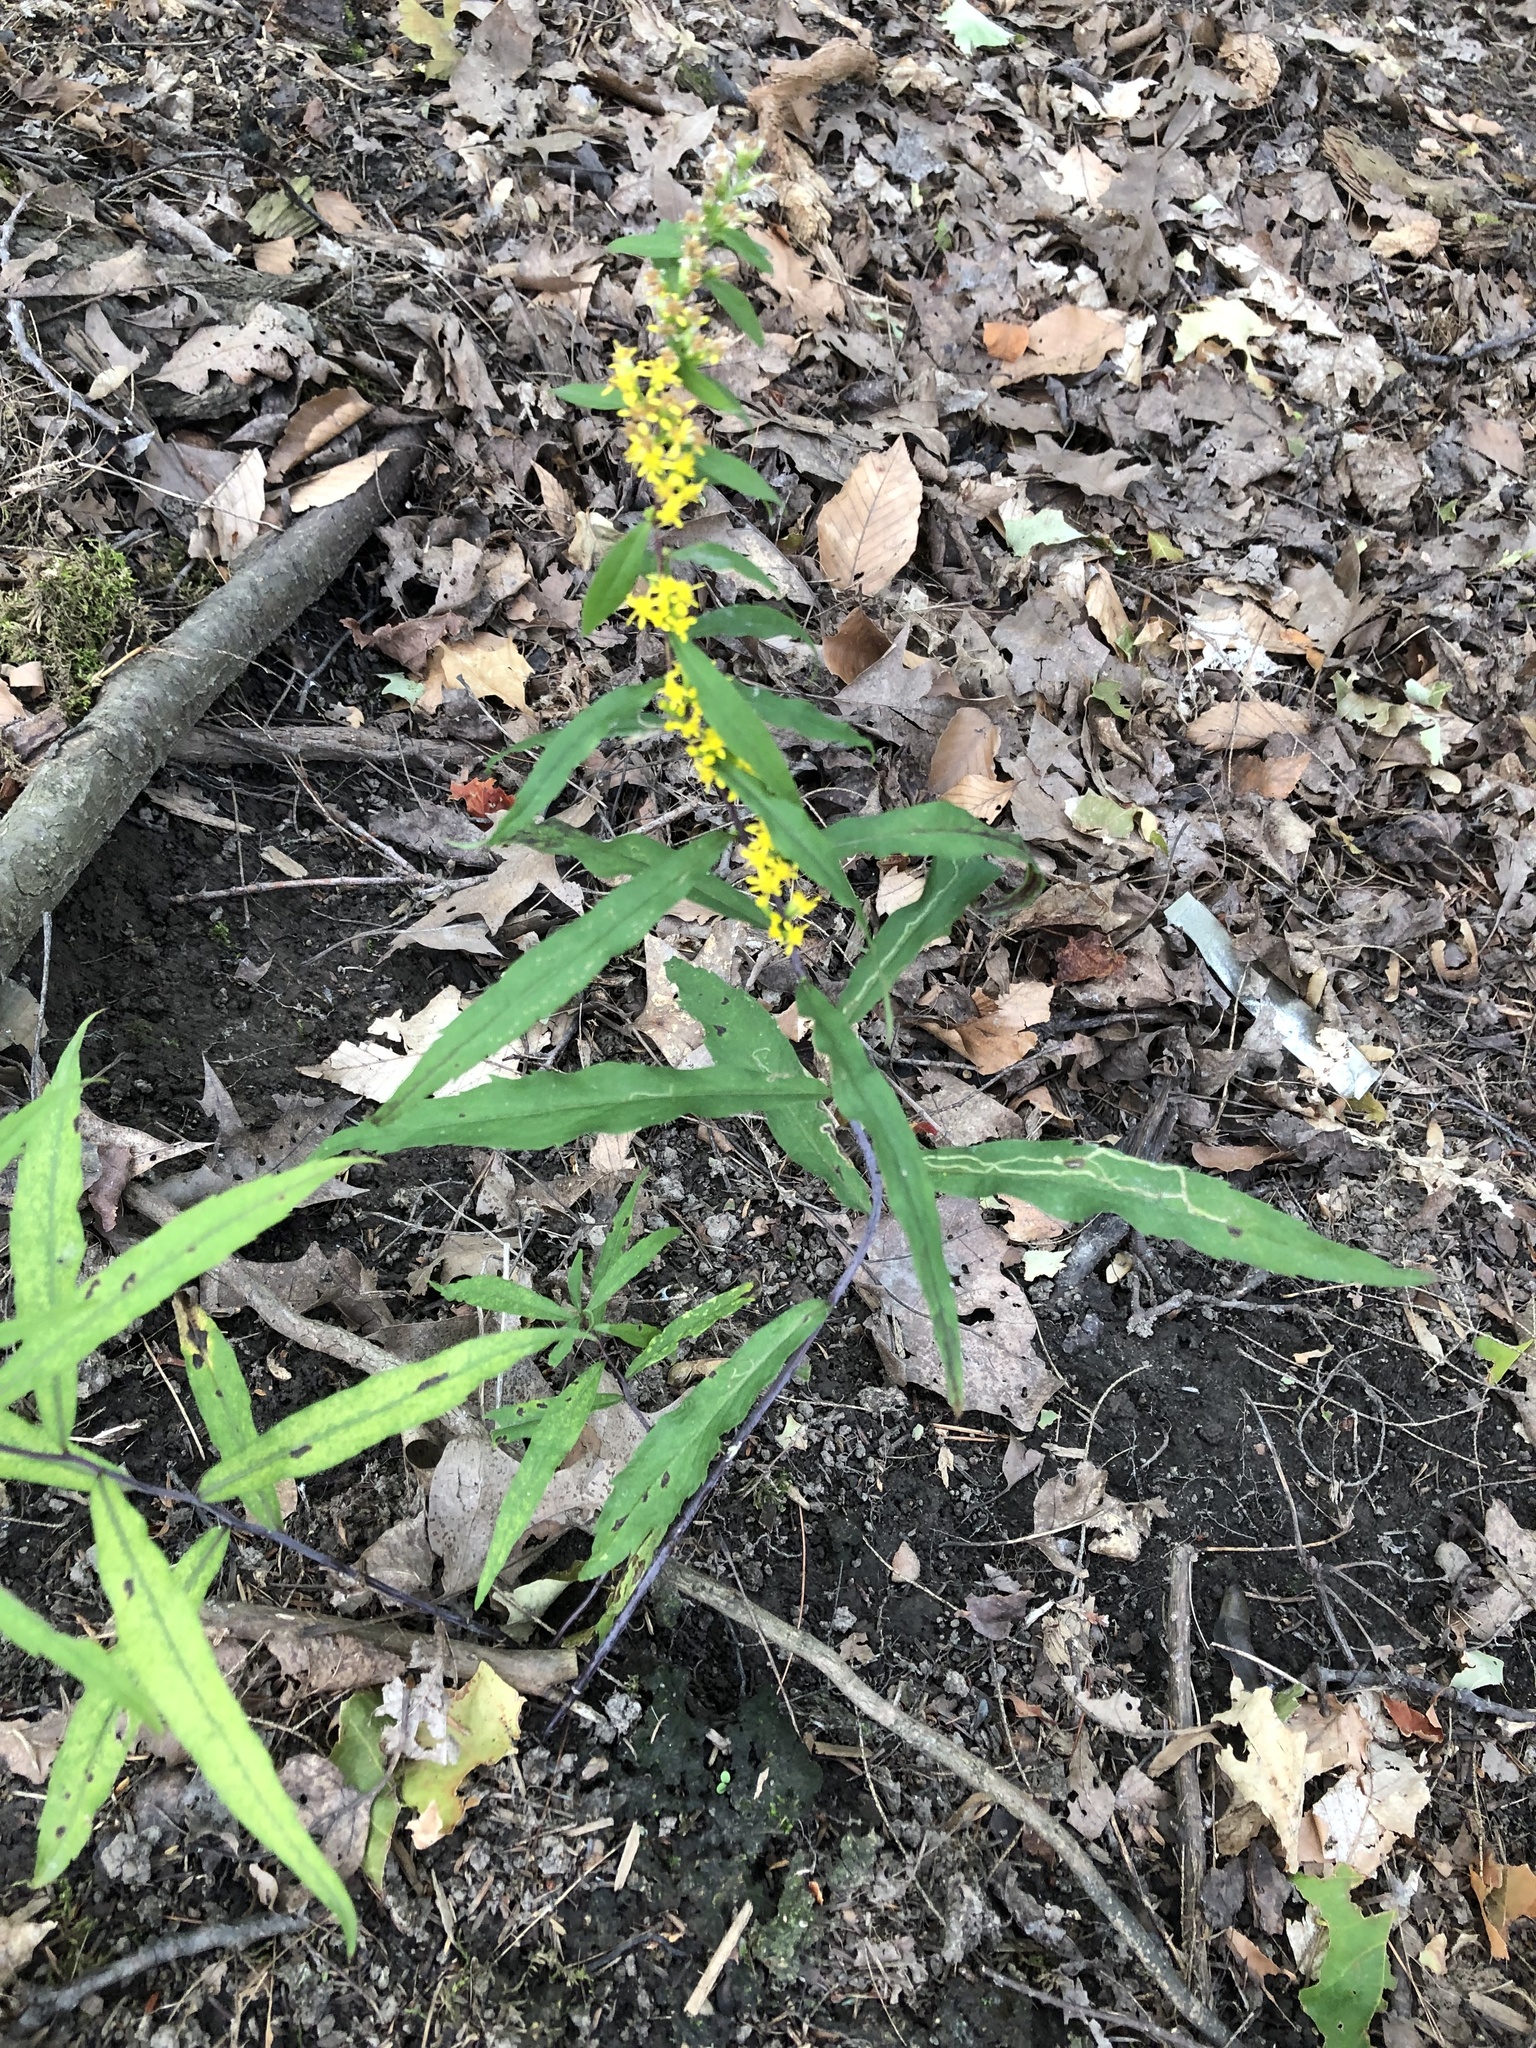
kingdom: Plantae
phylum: Tracheophyta
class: Magnoliopsida
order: Asterales
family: Asteraceae
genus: Solidago
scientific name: Solidago caesia
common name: Woodland goldenrod
